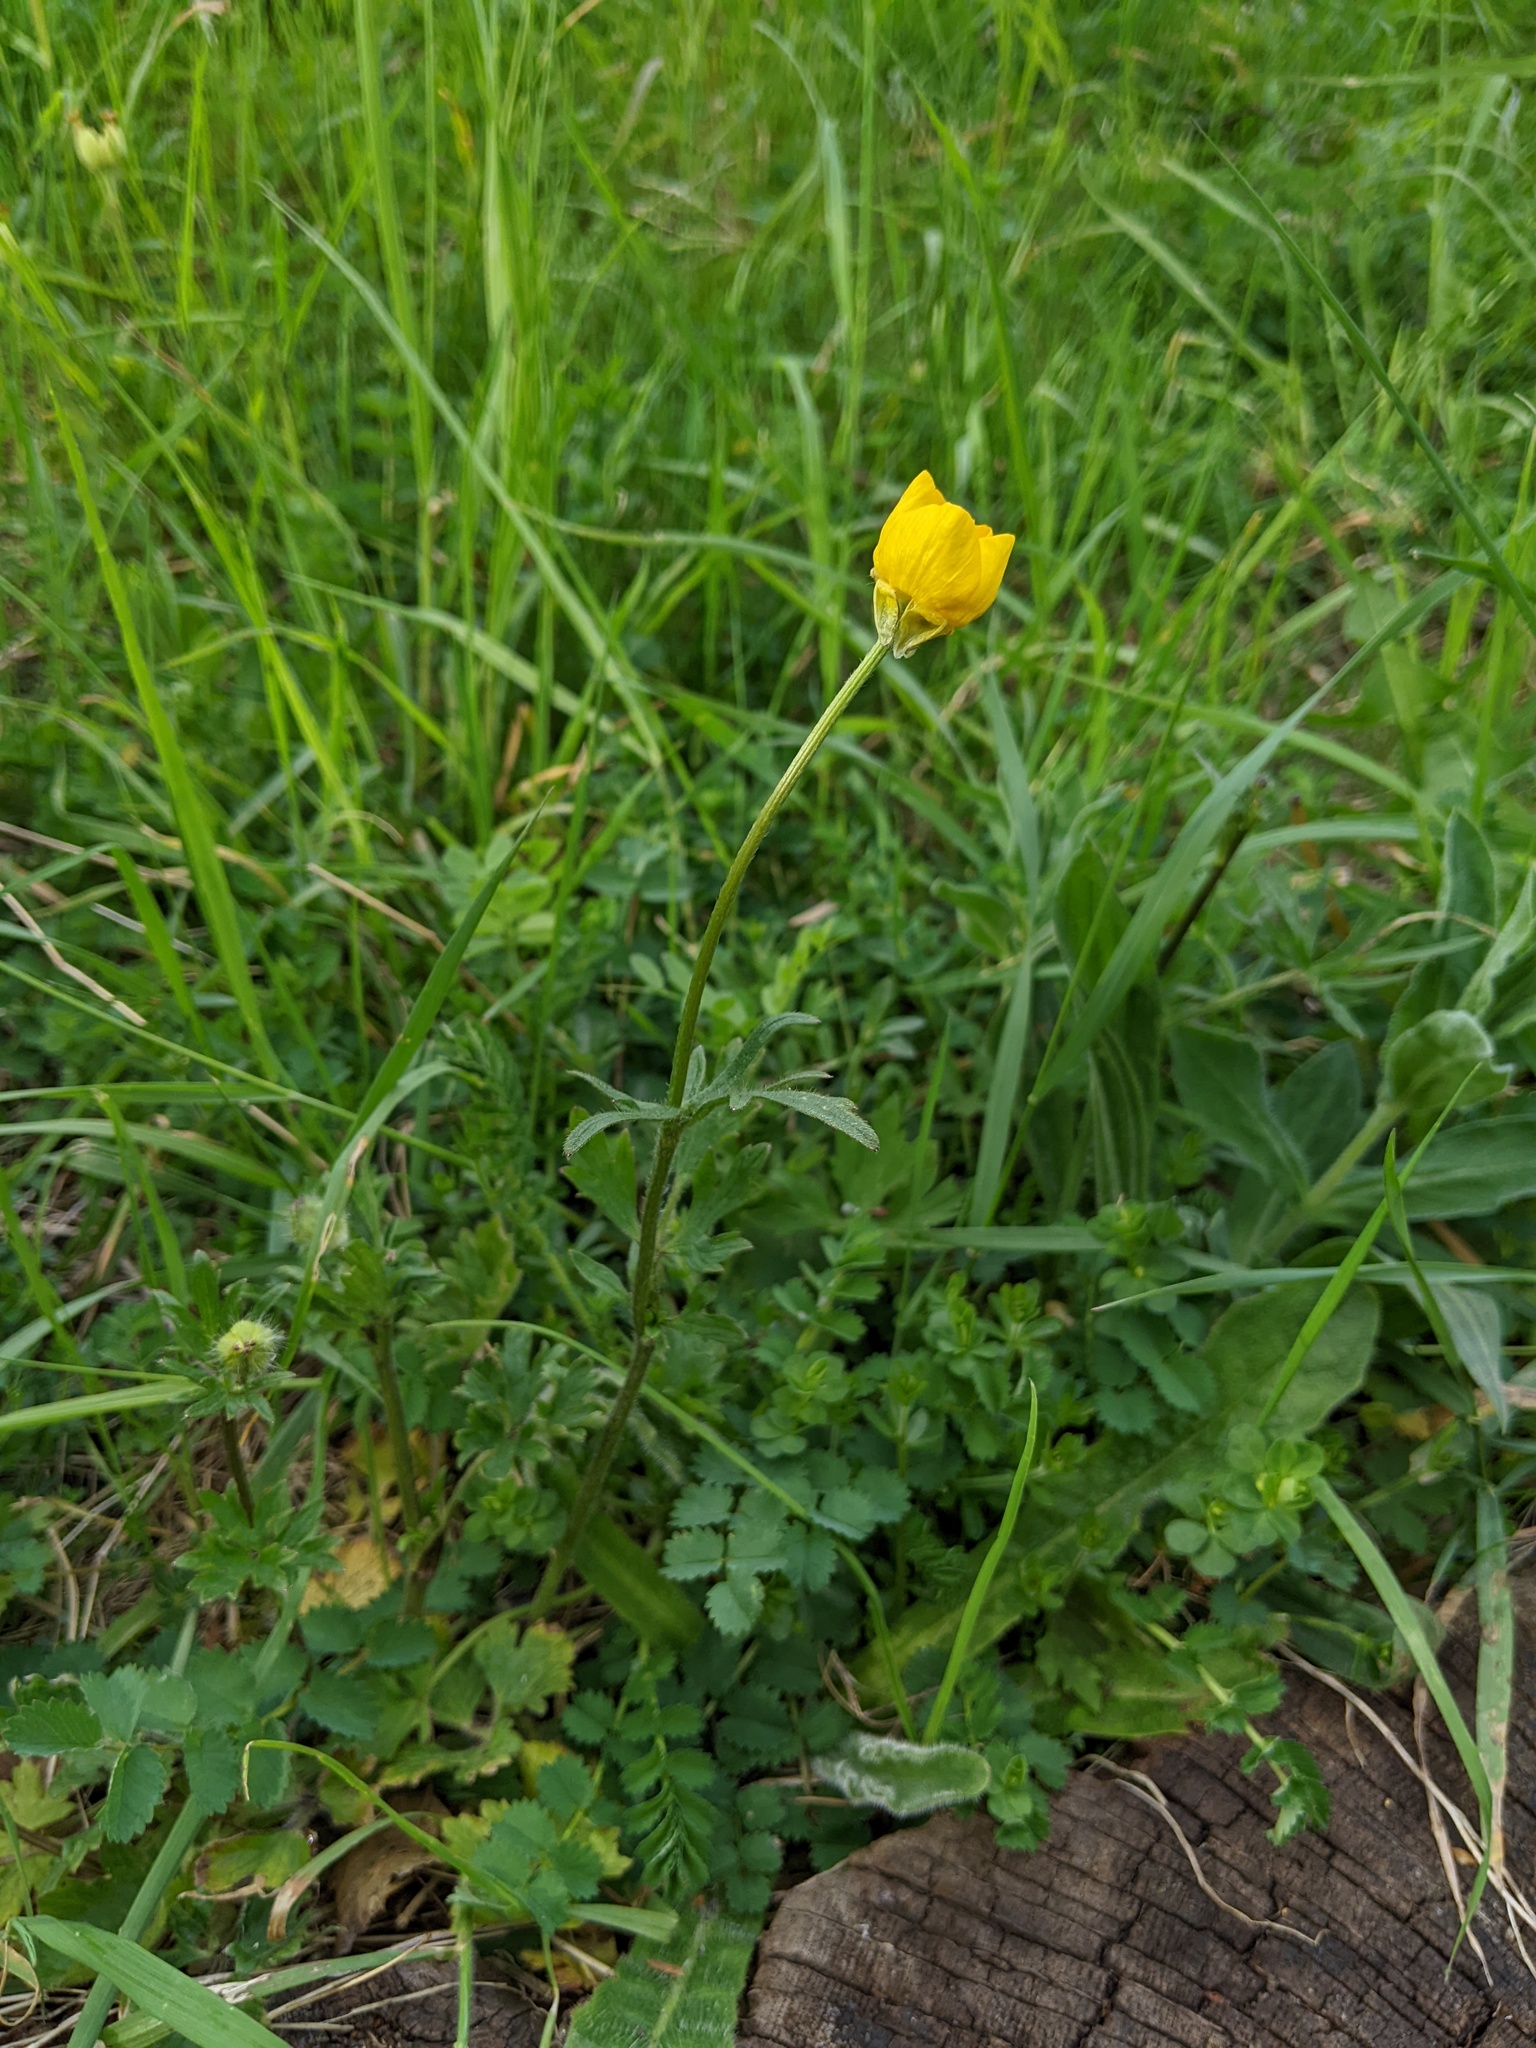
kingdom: Plantae
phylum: Tracheophyta
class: Magnoliopsida
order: Ranunculales
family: Ranunculaceae
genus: Ranunculus
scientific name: Ranunculus bulbosus
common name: Bulbous buttercup
